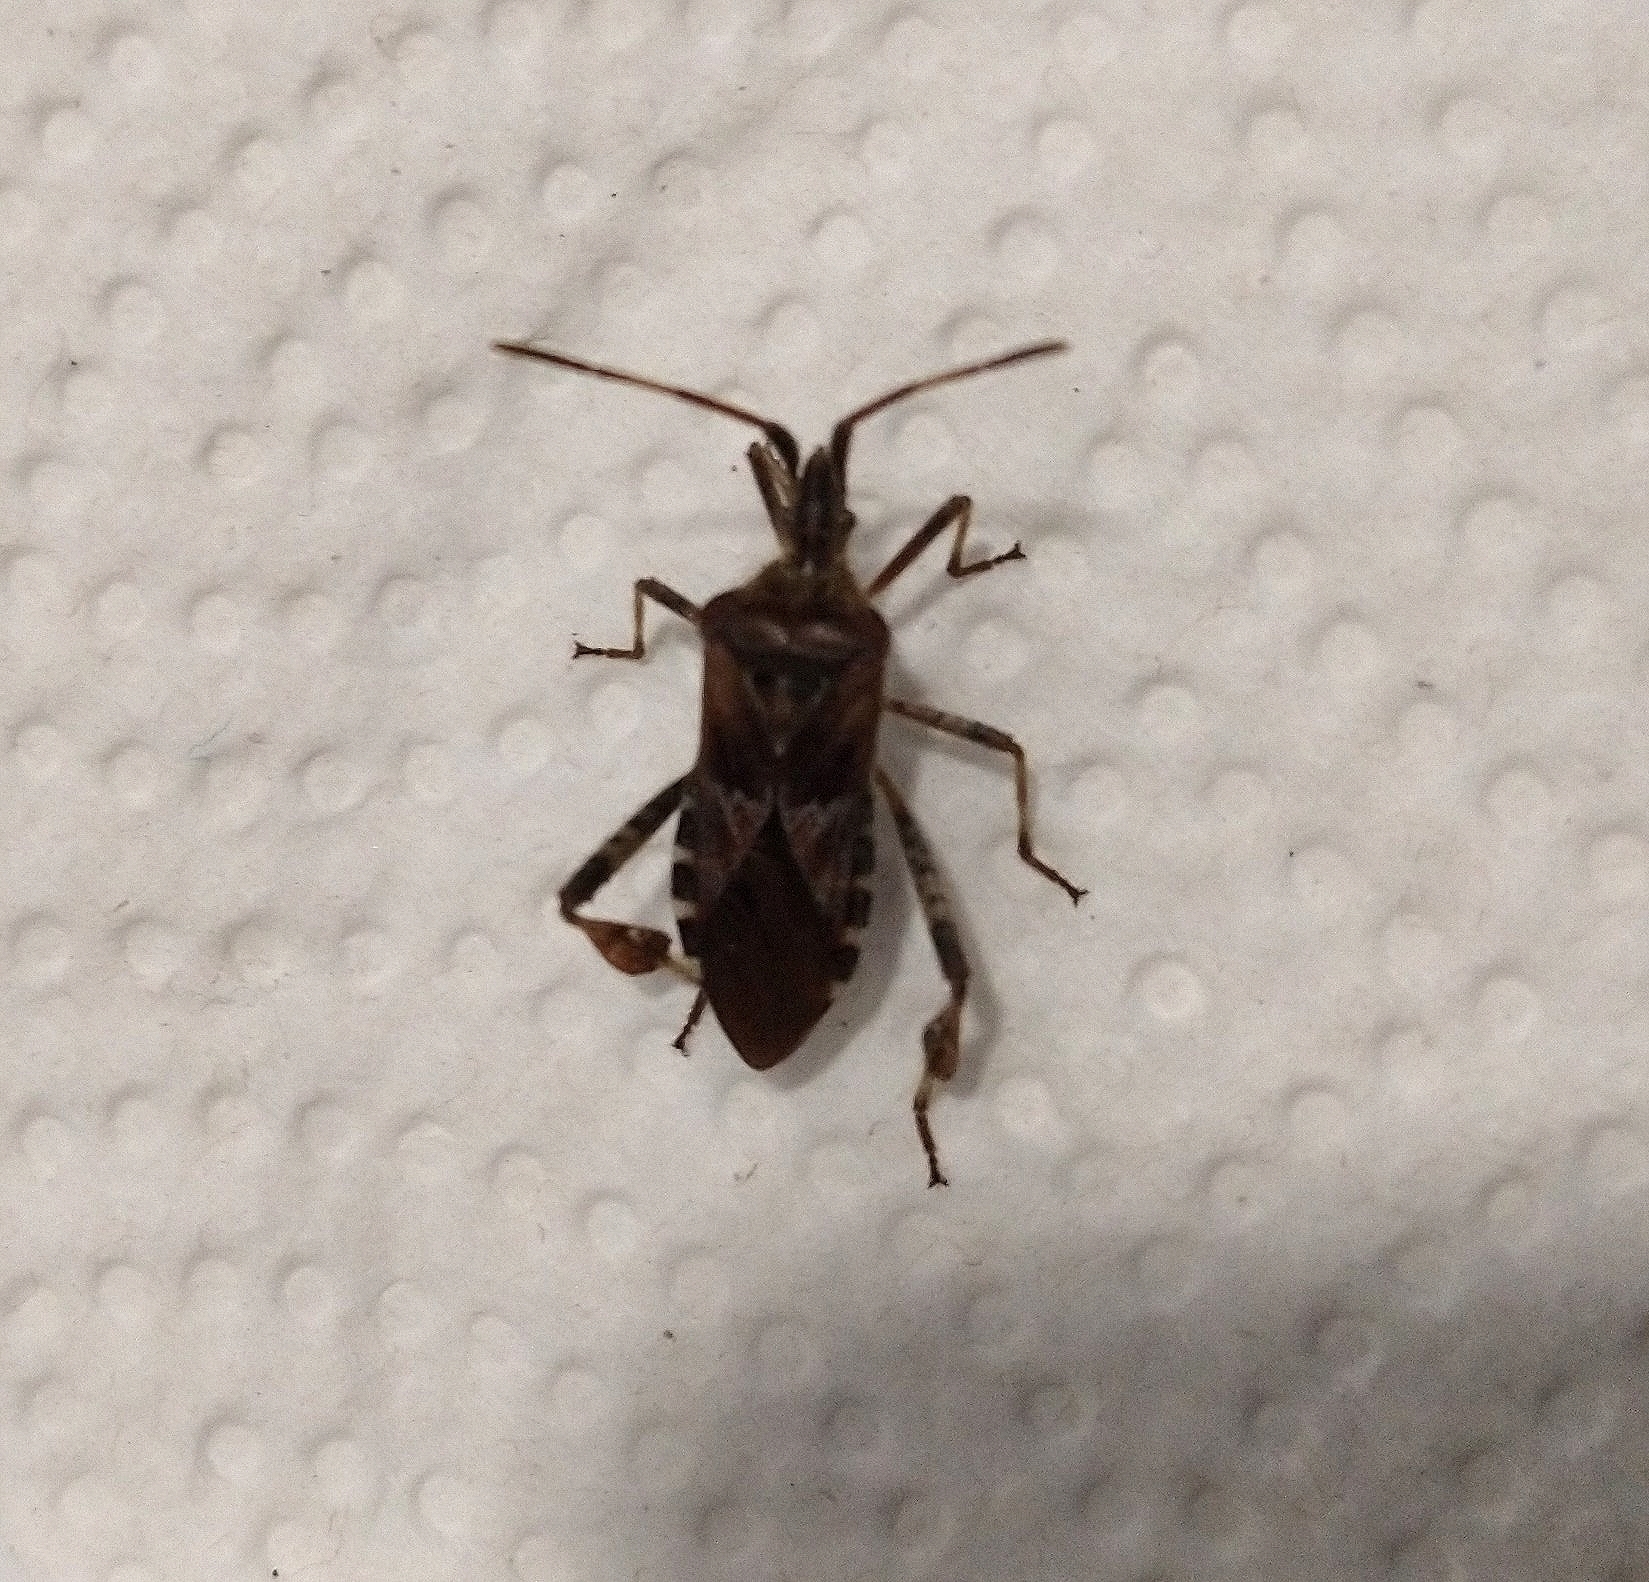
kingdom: Animalia
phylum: Arthropoda
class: Insecta
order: Hemiptera
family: Coreidae
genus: Leptoglossus
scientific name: Leptoglossus occidentalis
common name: Western conifer-seed bug
